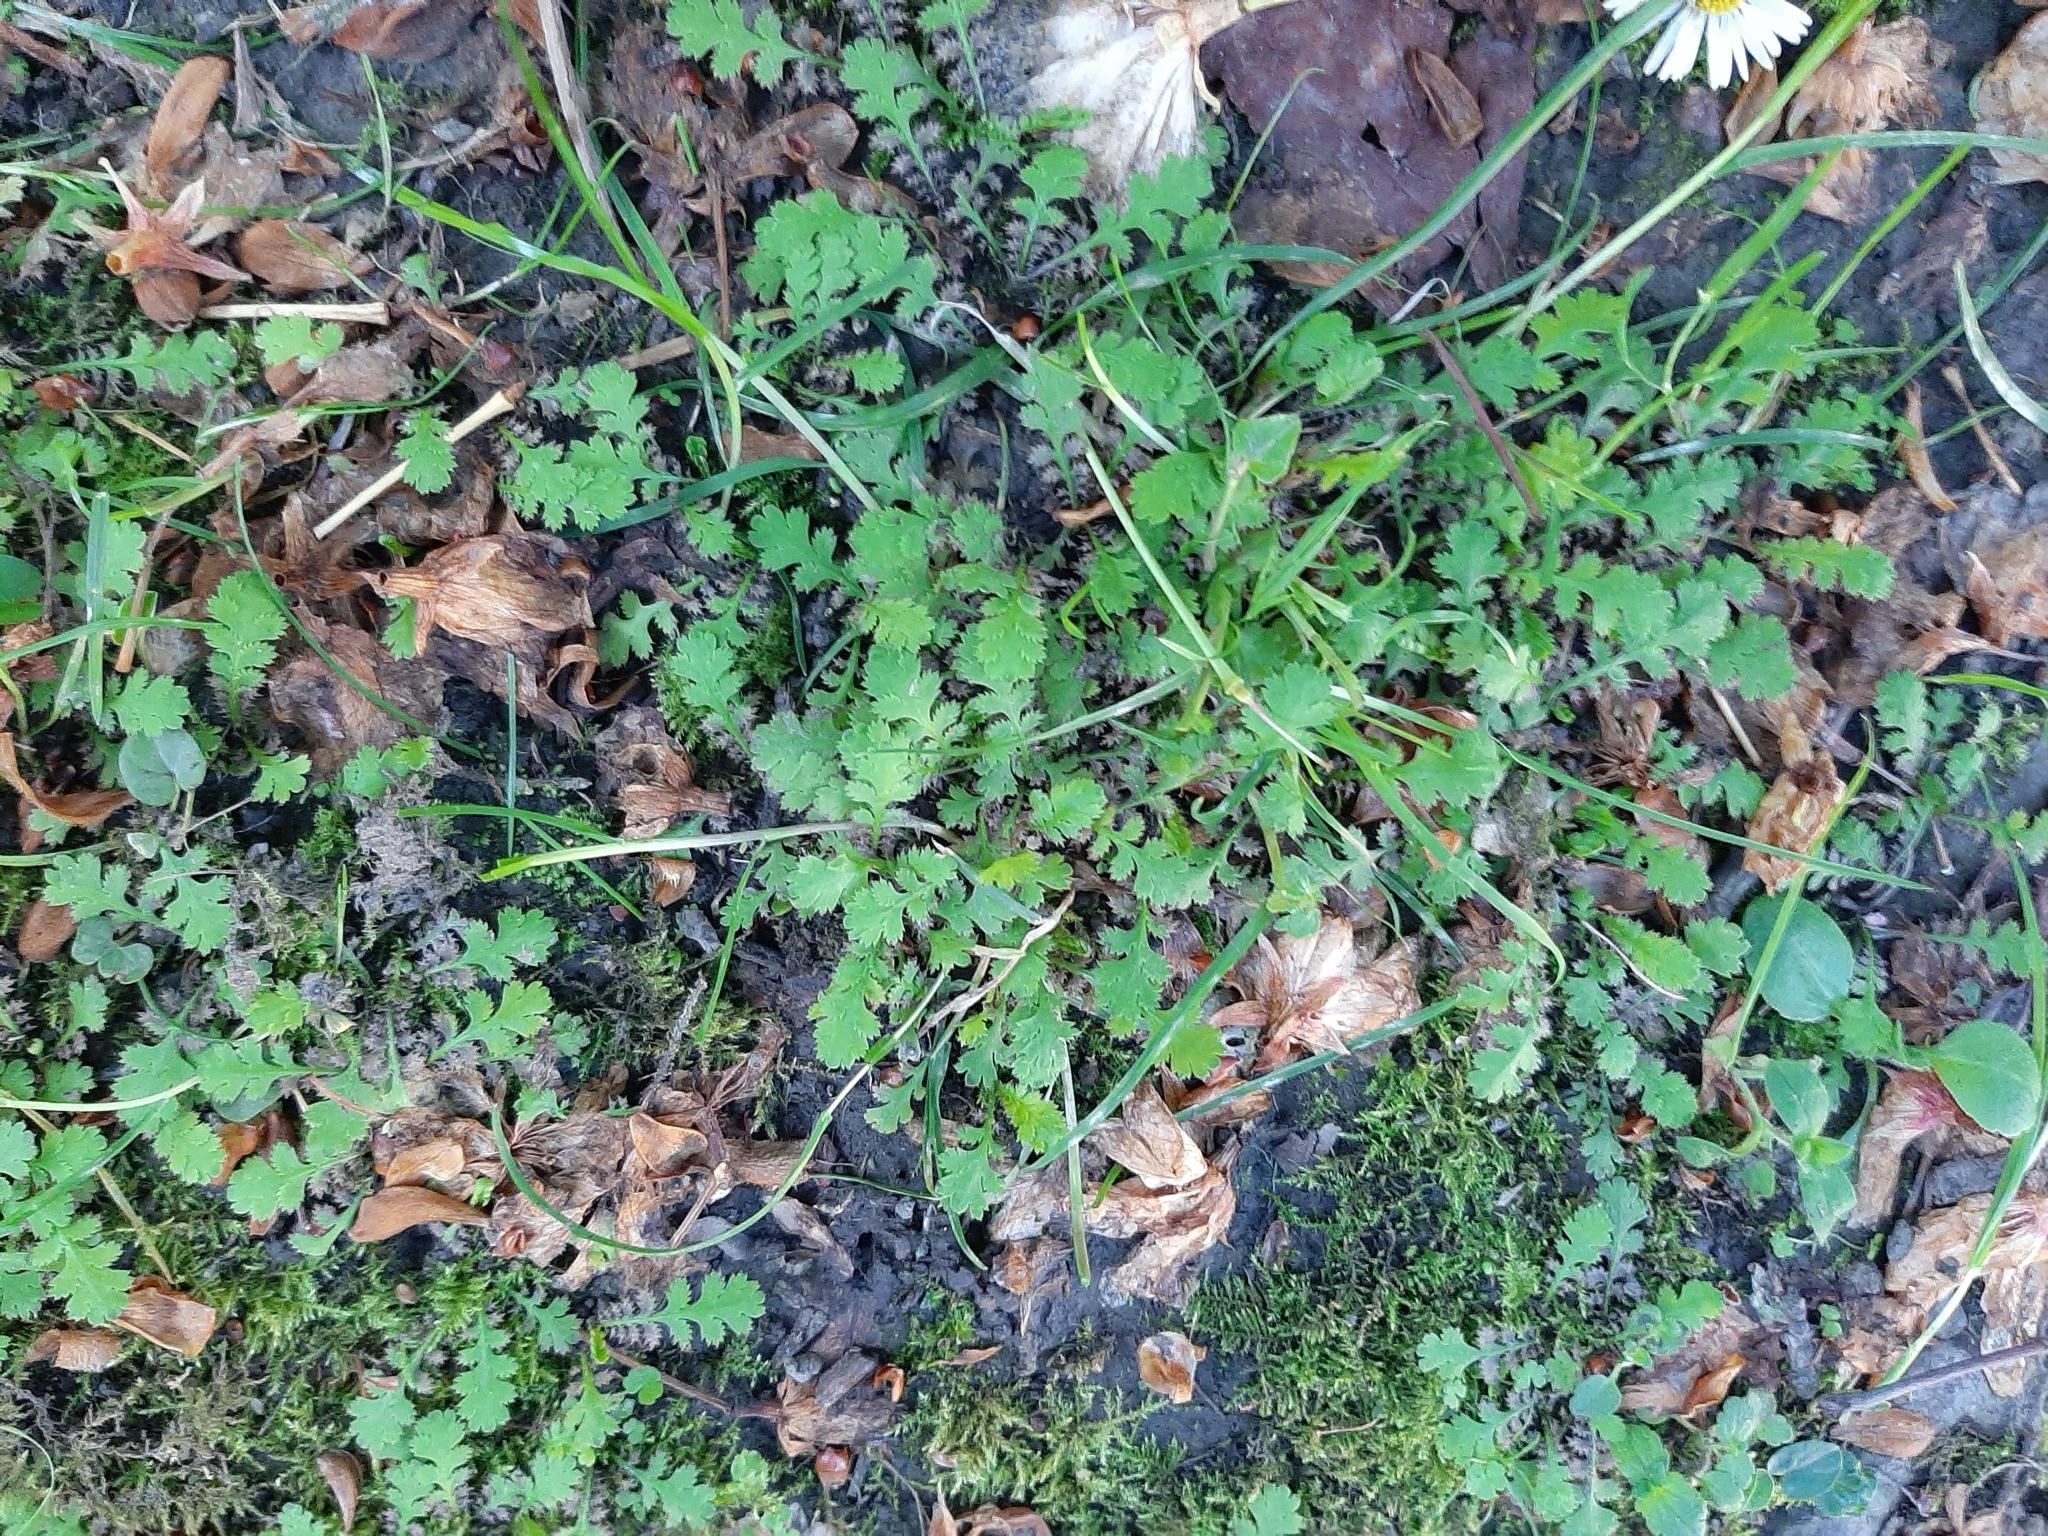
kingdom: Plantae
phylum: Tracheophyta
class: Magnoliopsida
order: Asterales
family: Asteraceae
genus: Leptinella
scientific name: Leptinella dioica
